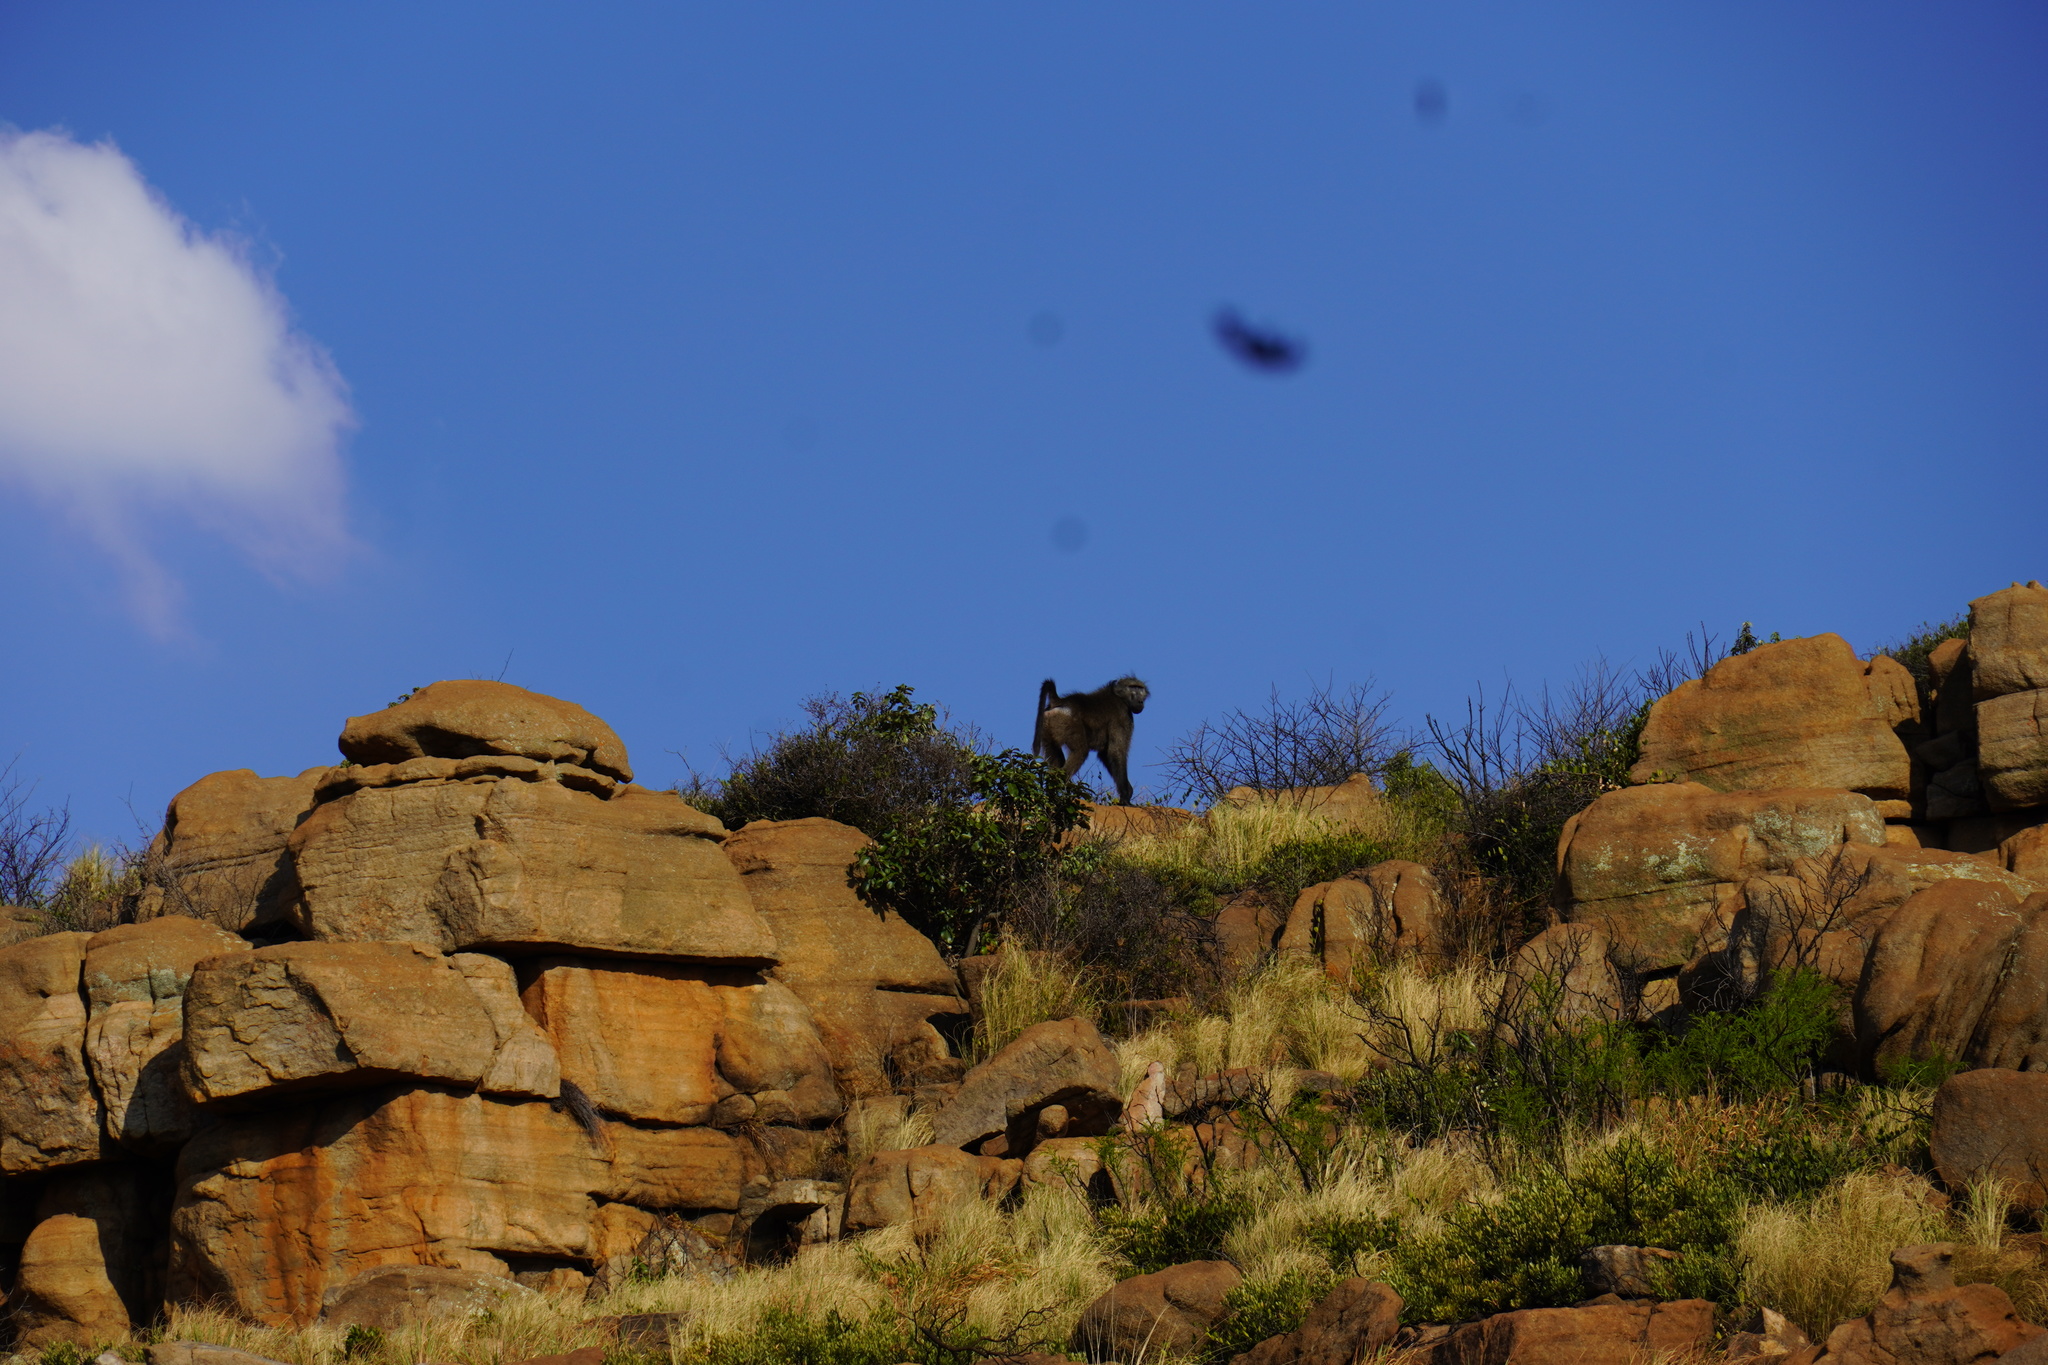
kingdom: Animalia
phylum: Chordata
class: Mammalia
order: Primates
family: Cercopithecidae
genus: Papio
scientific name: Papio ursinus
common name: Chacma baboon
